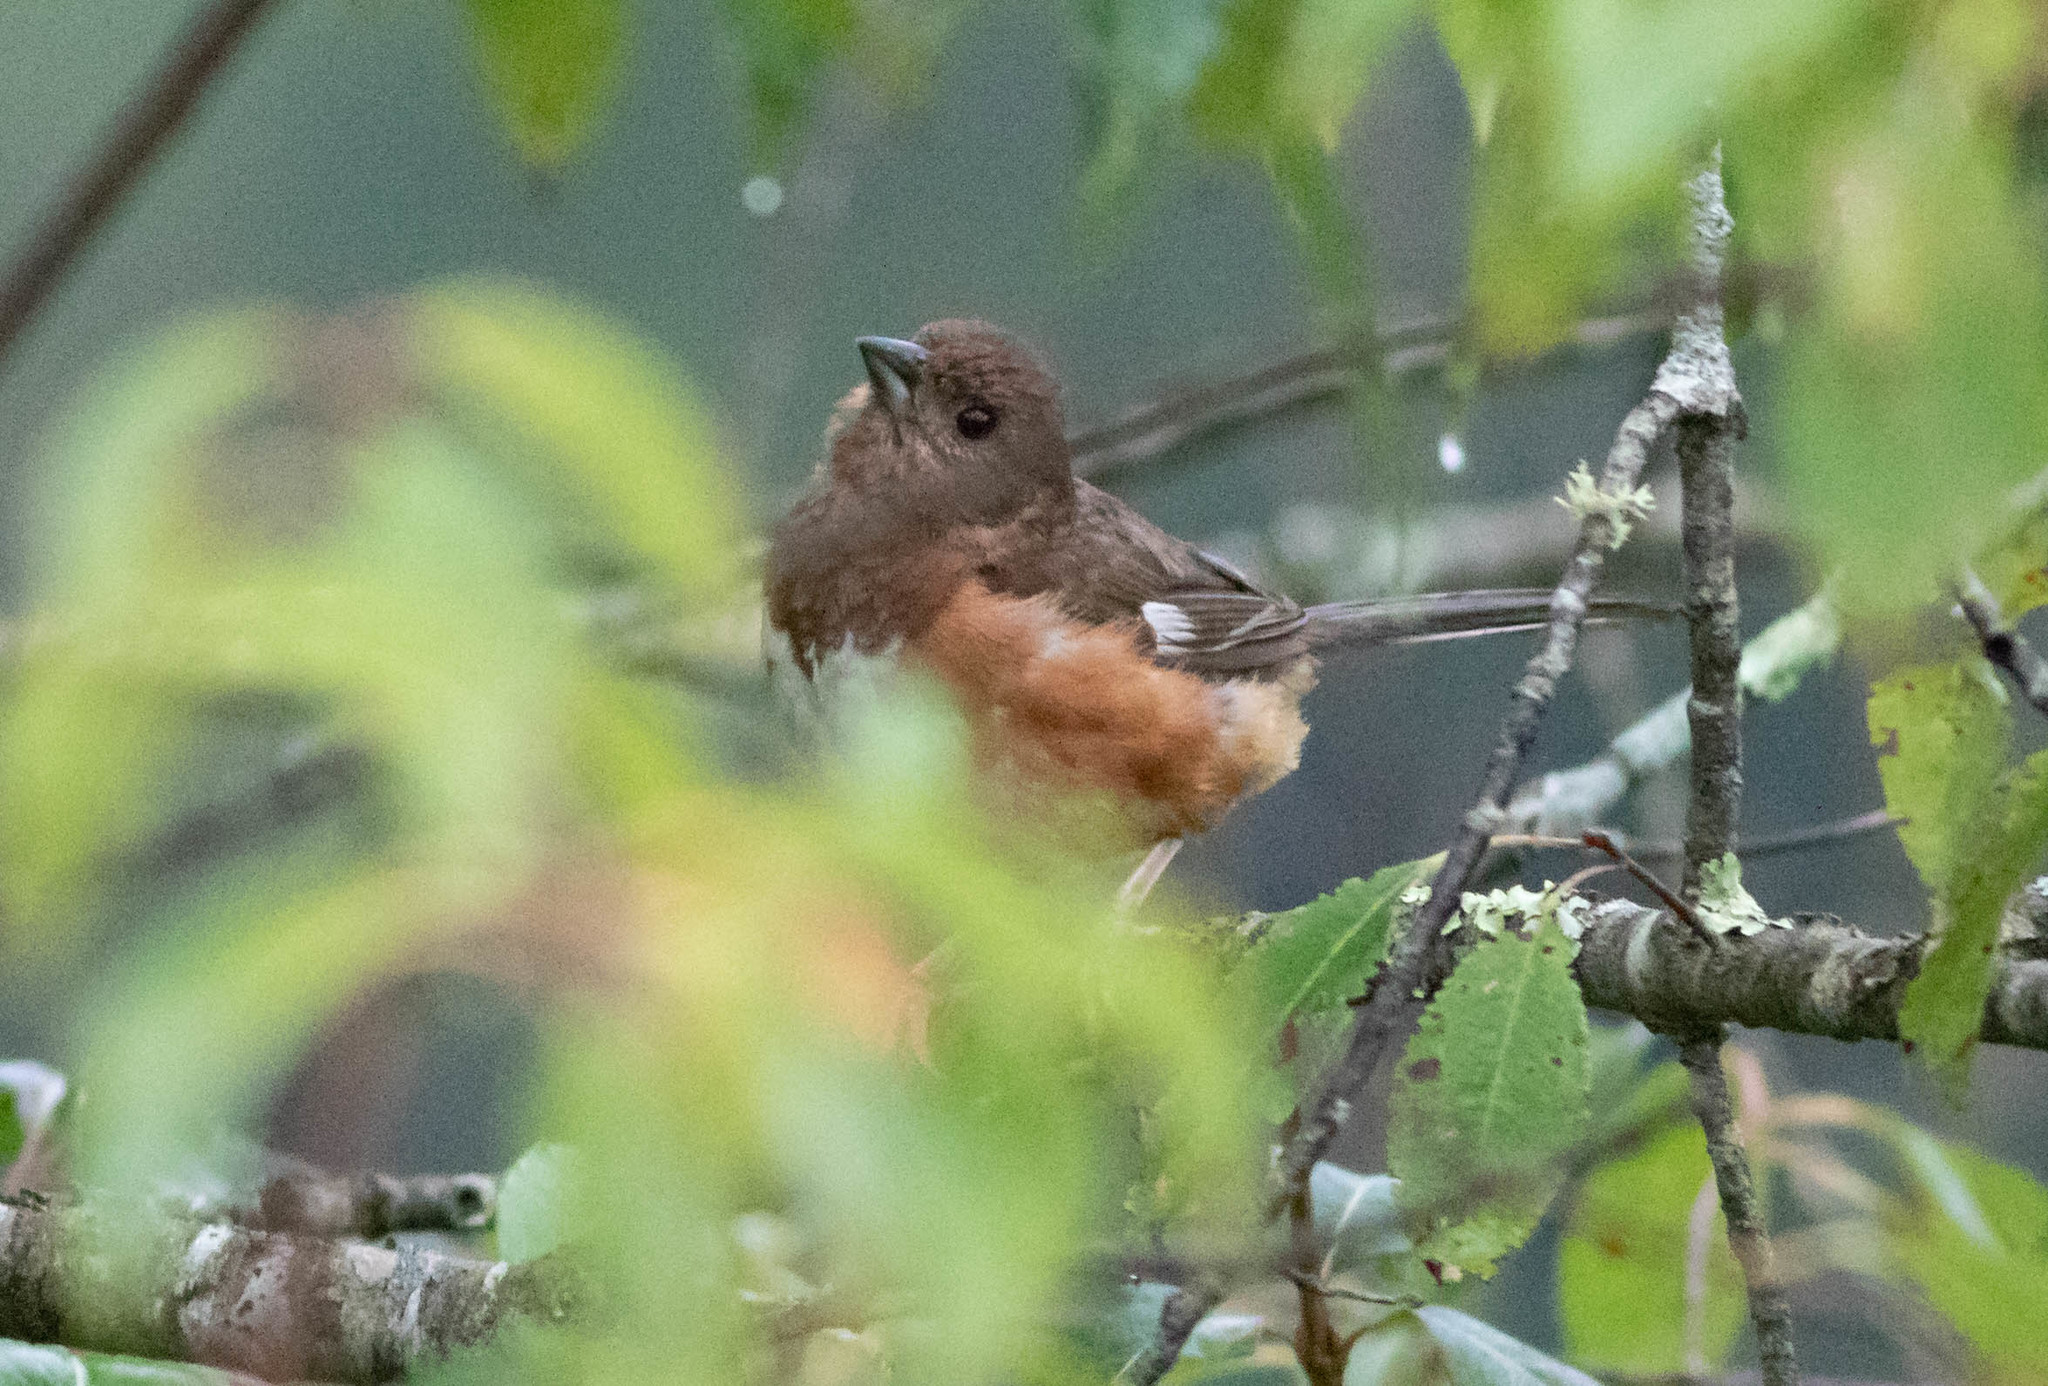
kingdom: Animalia
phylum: Chordata
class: Aves
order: Passeriformes
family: Passerellidae
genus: Pipilo
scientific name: Pipilo erythrophthalmus
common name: Eastern towhee
